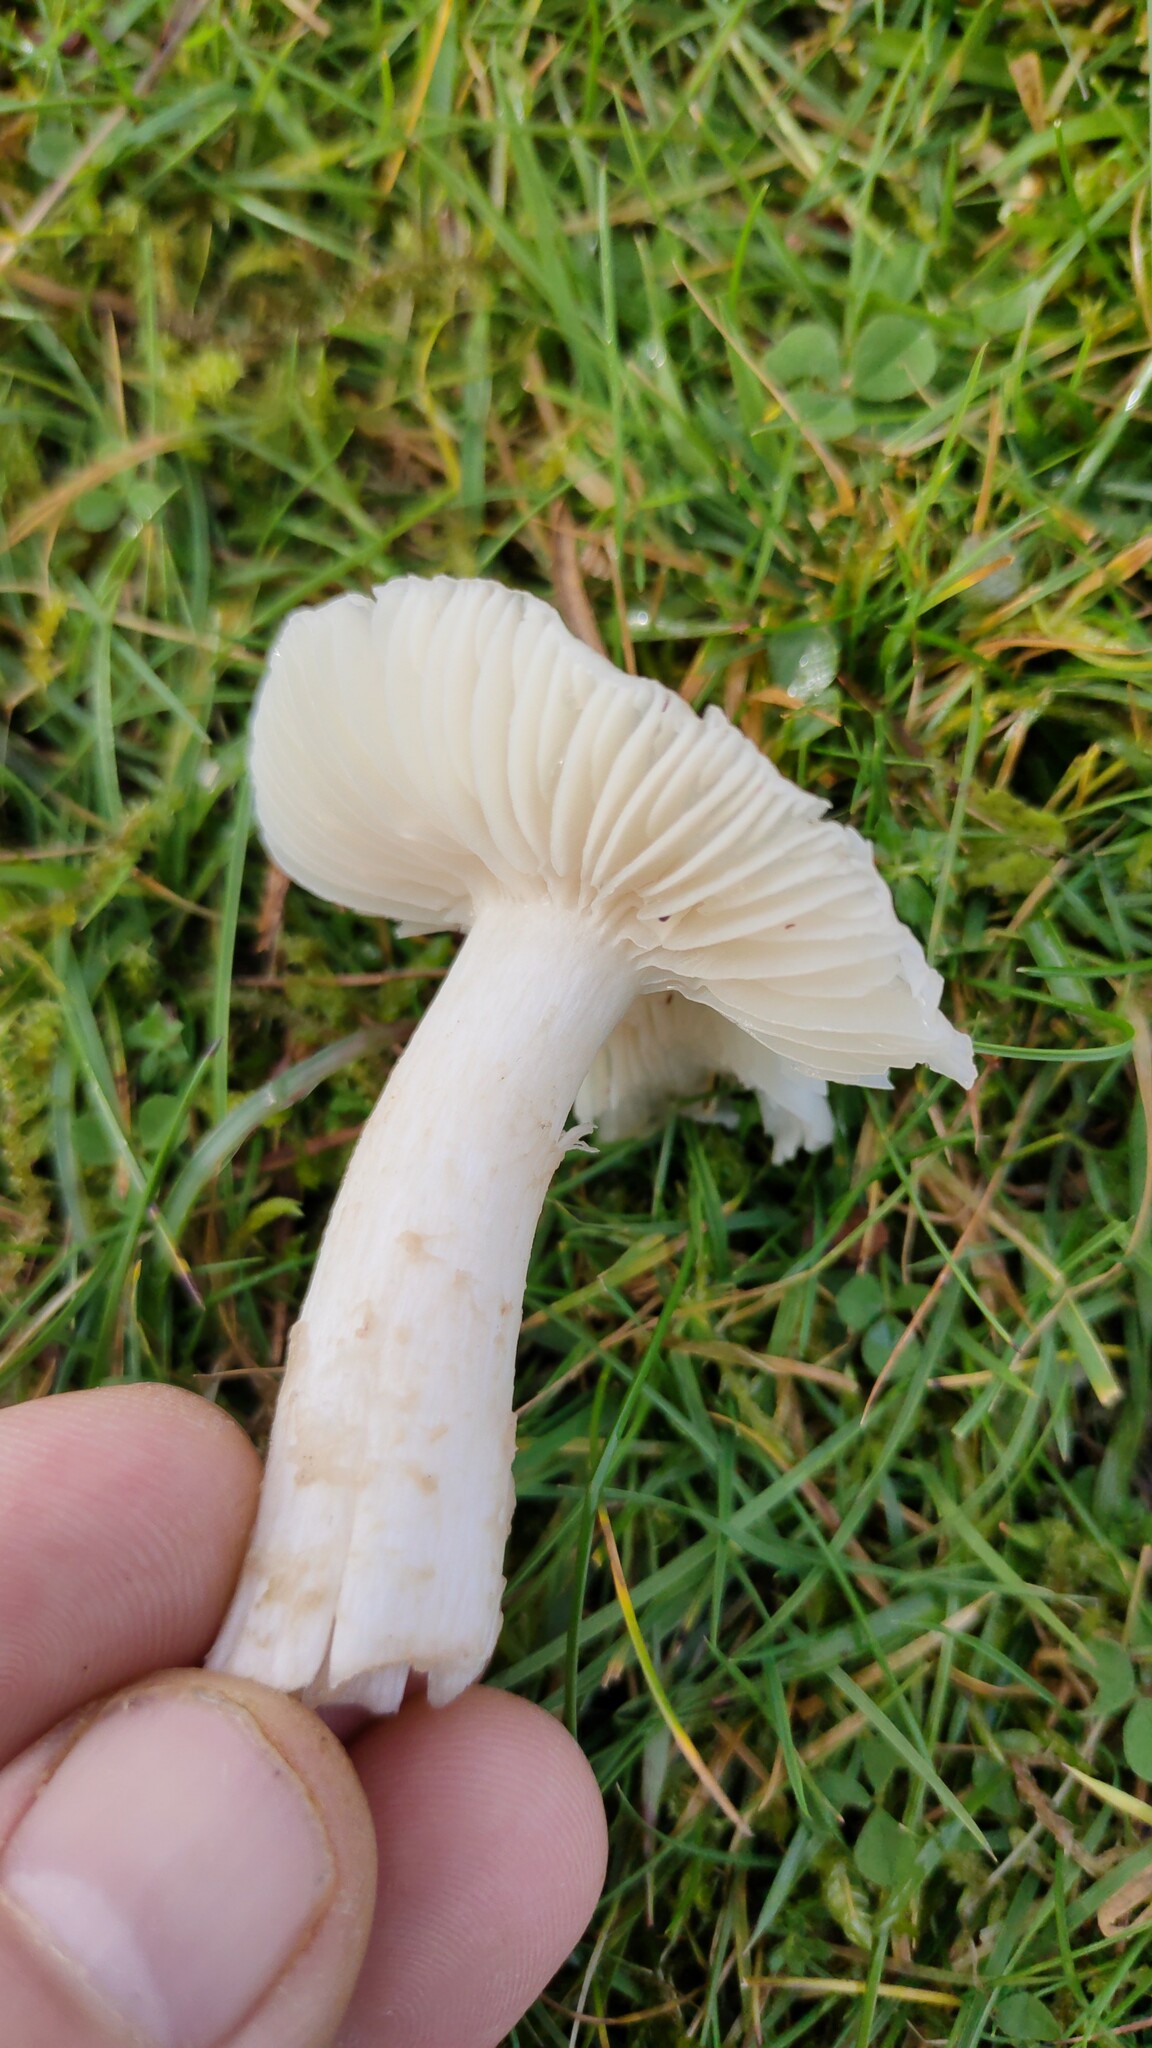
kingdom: Fungi
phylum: Basidiomycota
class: Agaricomycetes
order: Agaricales
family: Hygrophoraceae
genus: Cuphophyllus
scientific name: Cuphophyllus fornicatus
